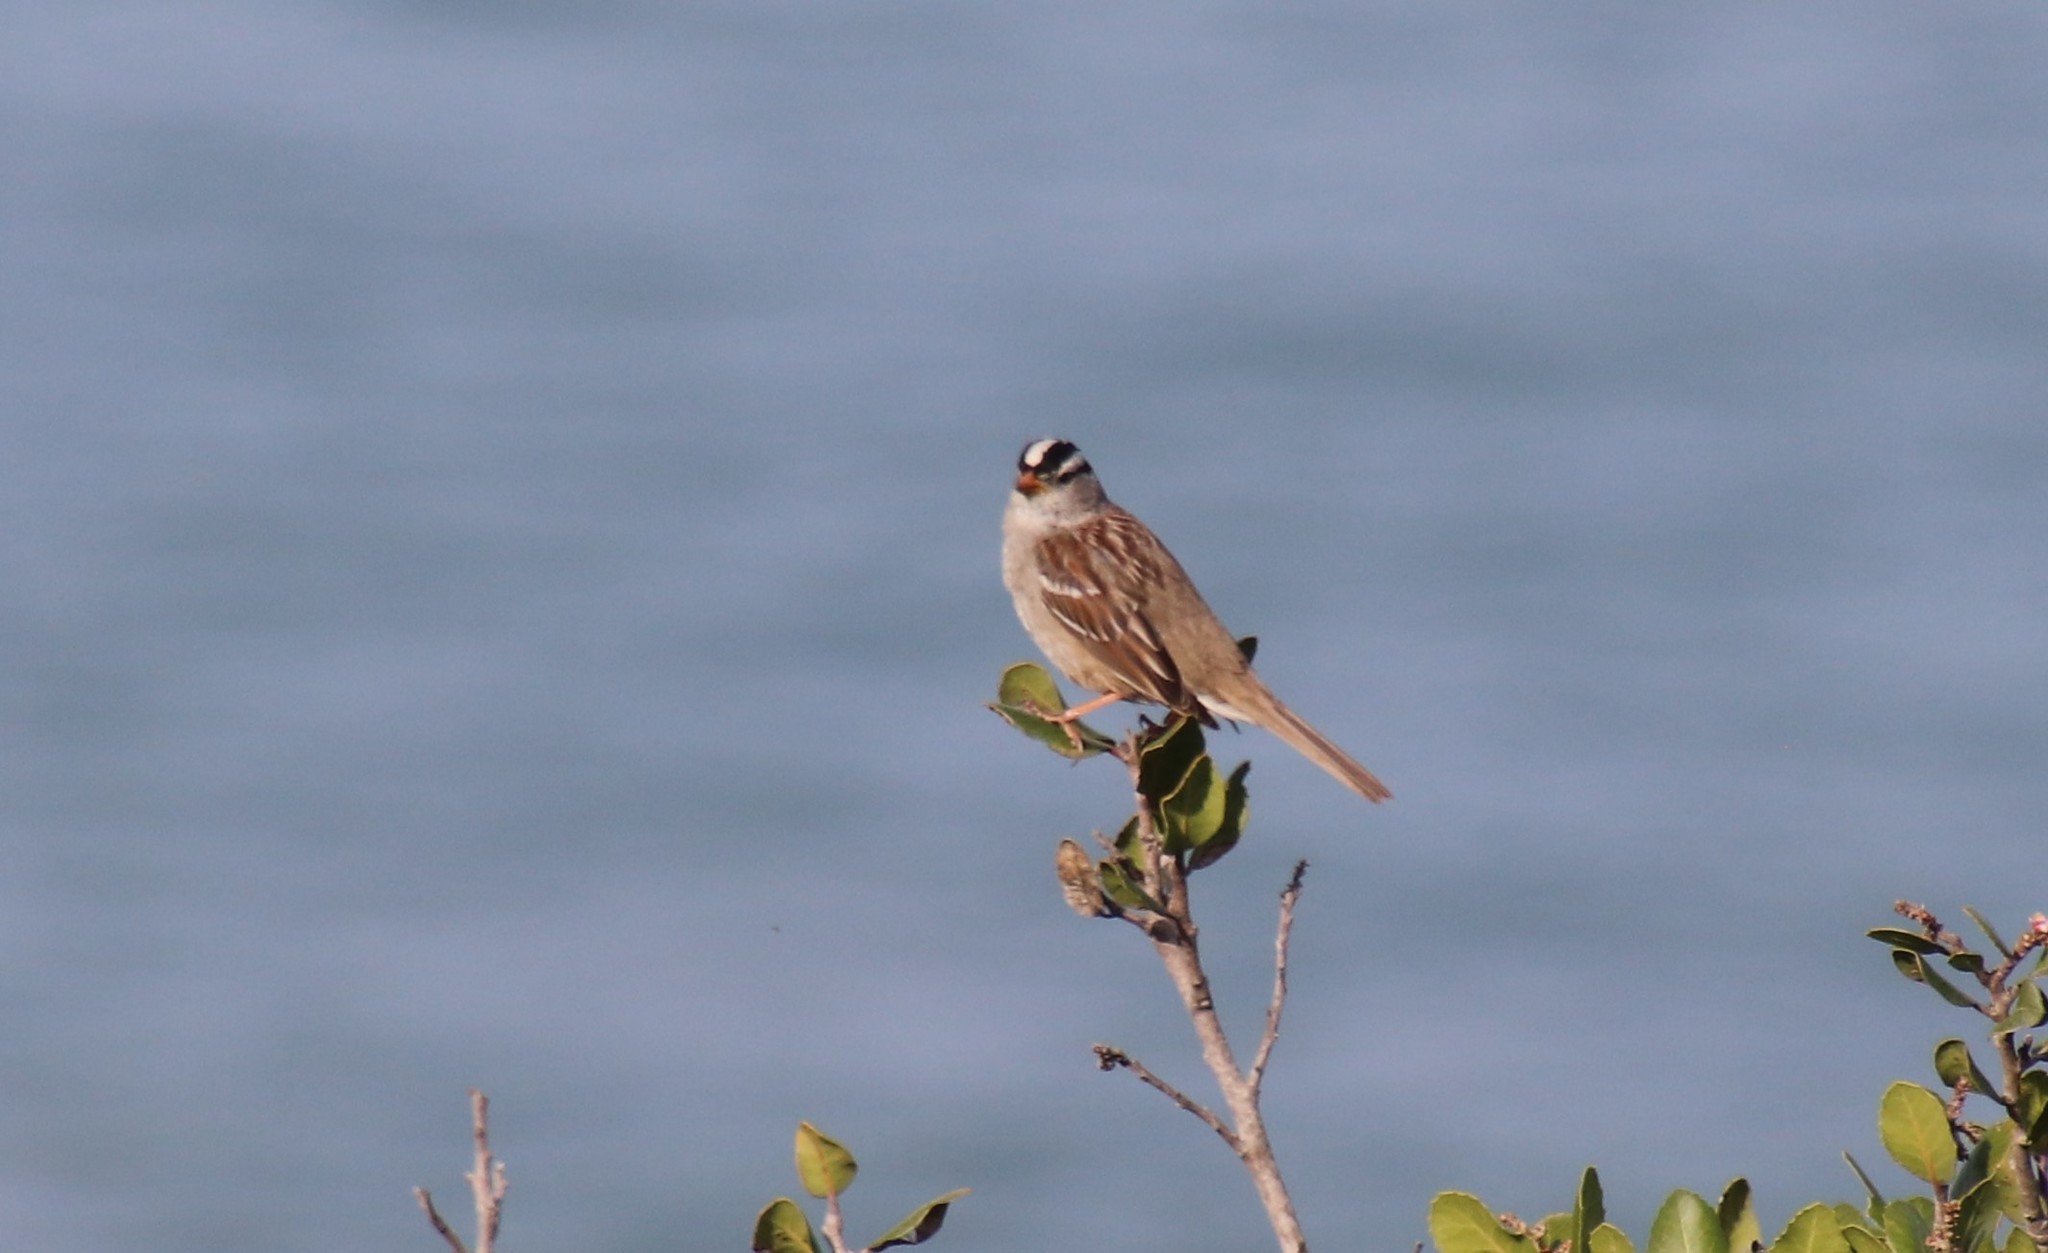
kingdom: Animalia
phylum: Chordata
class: Aves
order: Passeriformes
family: Passerellidae
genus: Zonotrichia
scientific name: Zonotrichia leucophrys
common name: White-crowned sparrow
